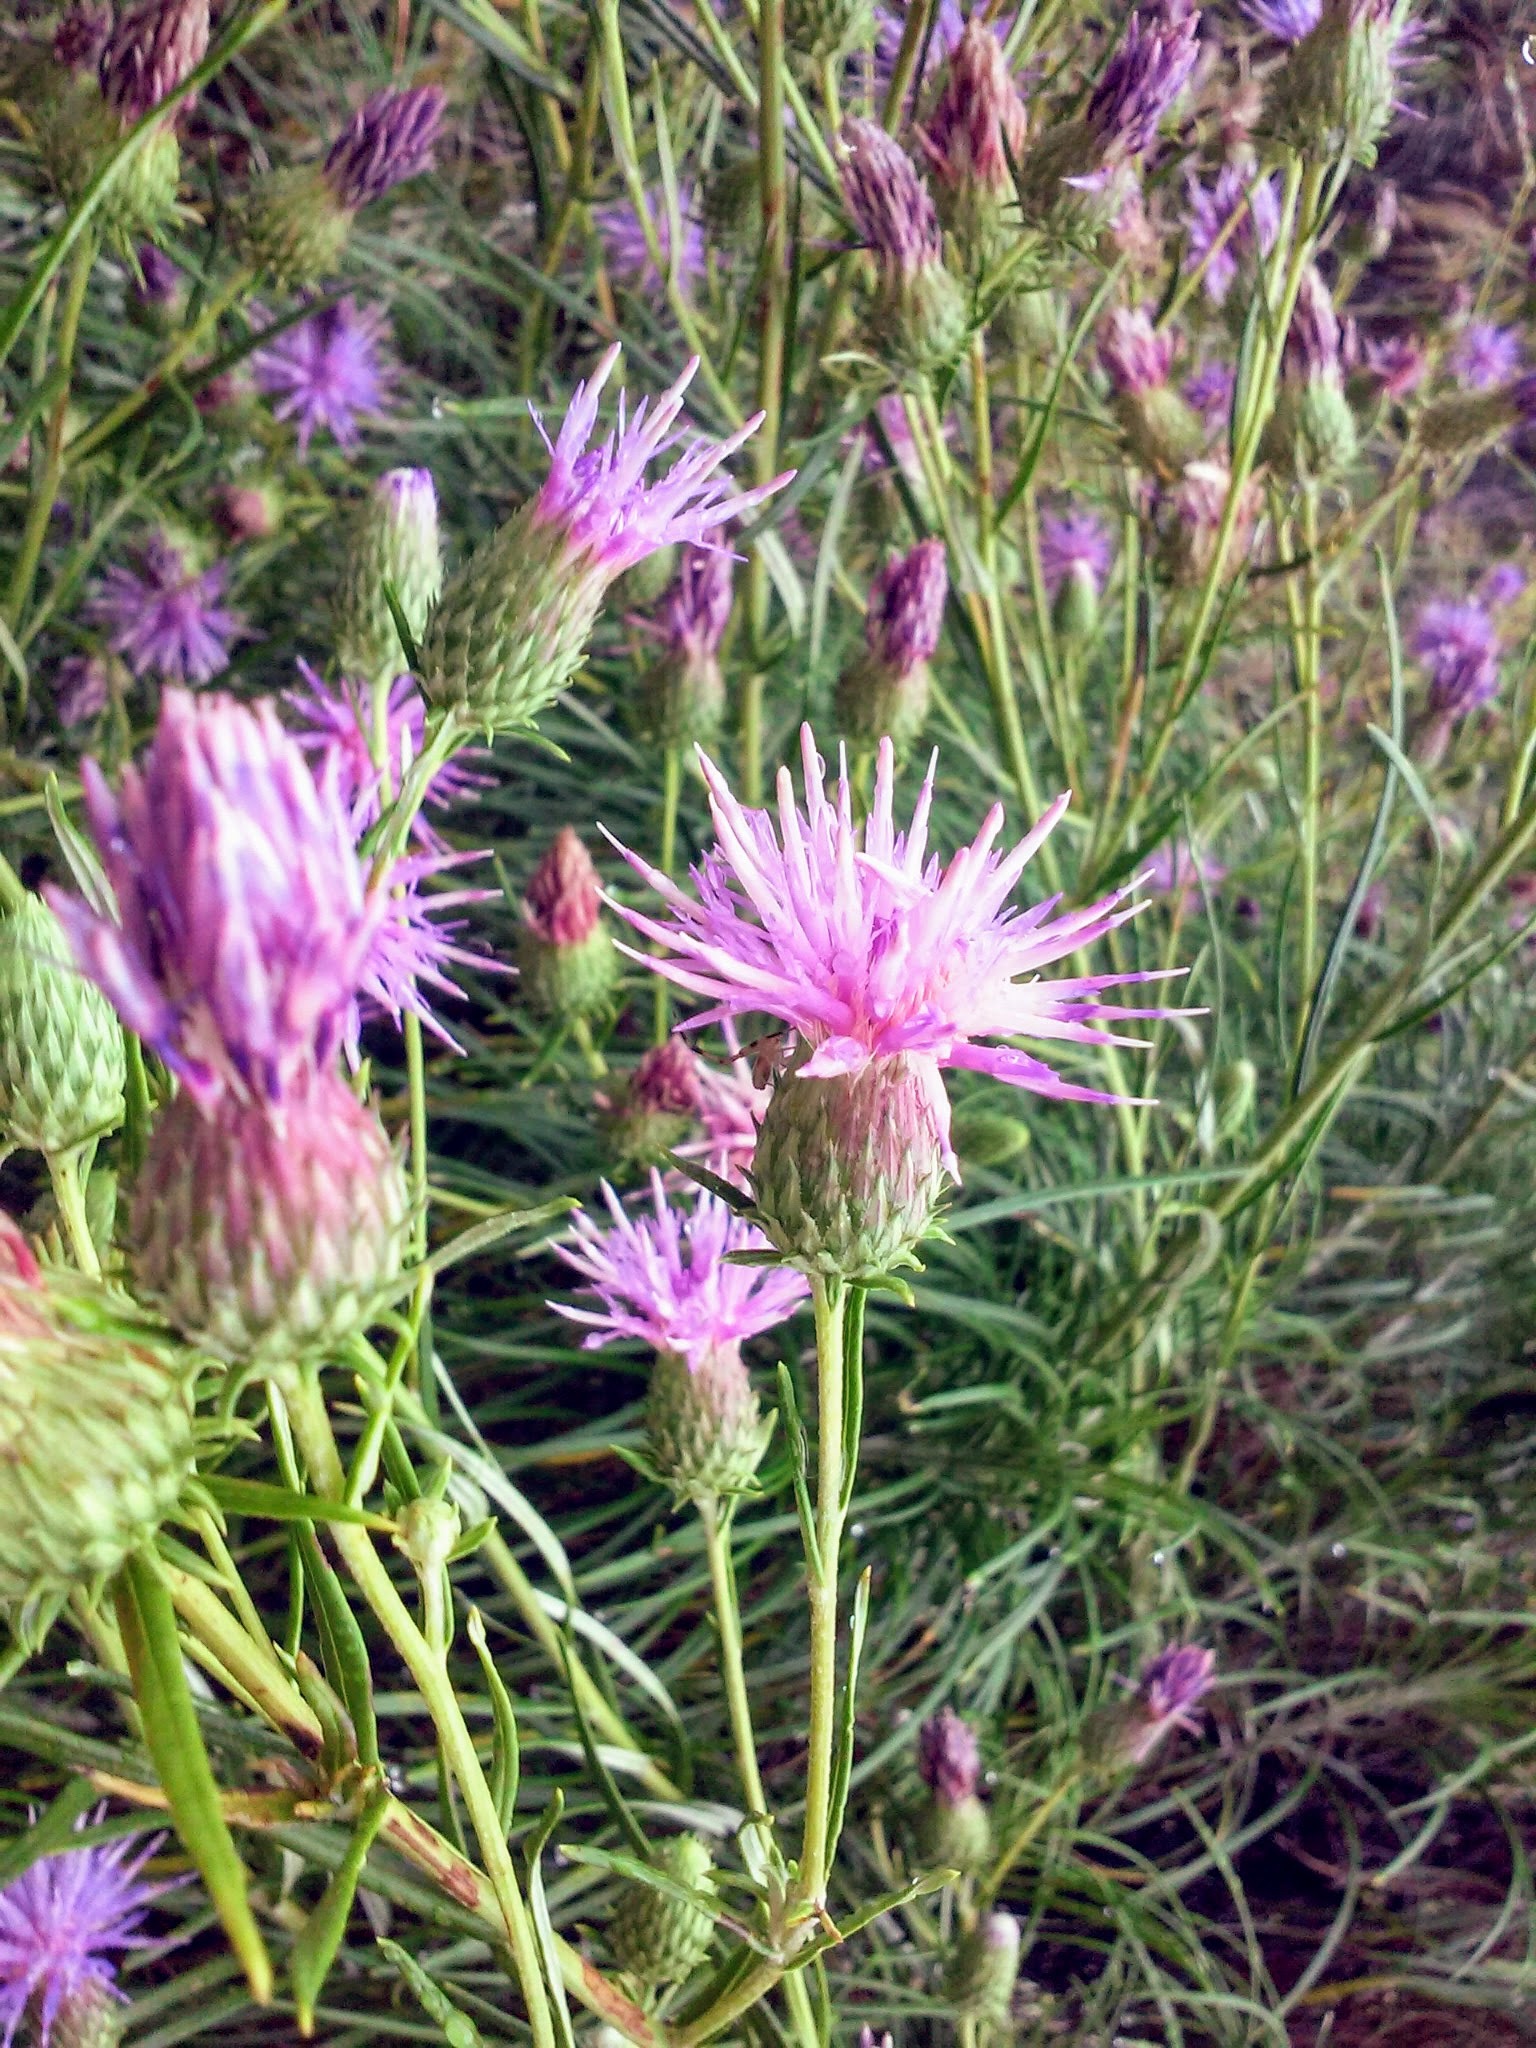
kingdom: Plantae
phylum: Tracheophyta
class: Magnoliopsida
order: Asterales
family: Asteraceae
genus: Ptilostemon
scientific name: Ptilostemon chamaepeuce
